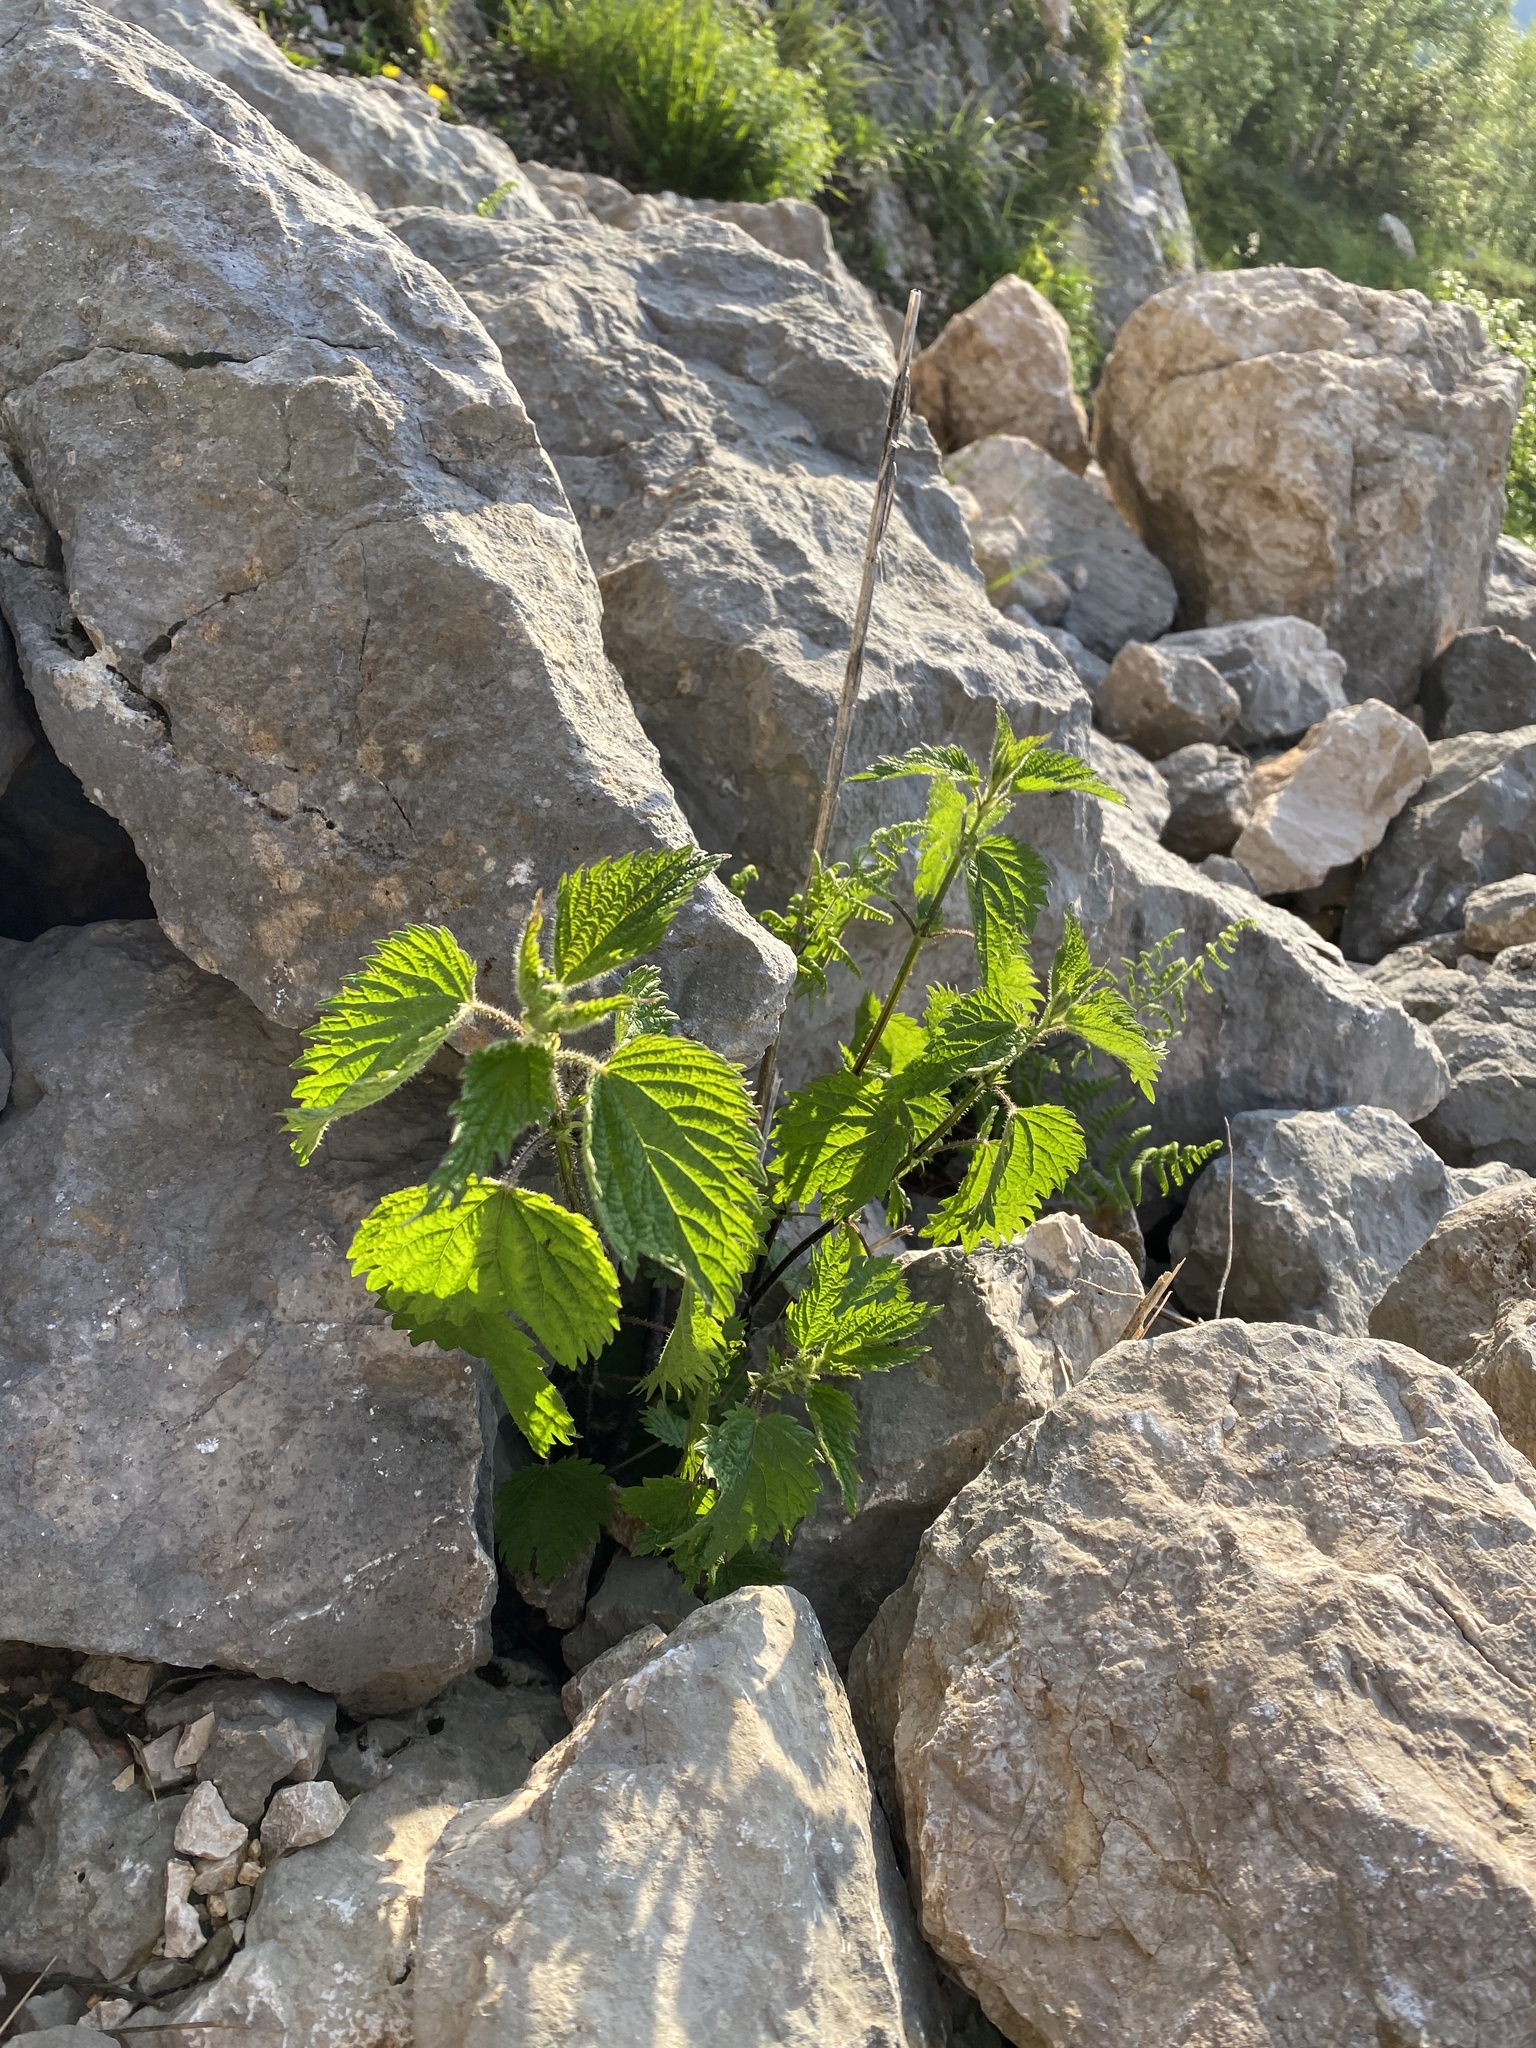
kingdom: Plantae
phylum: Tracheophyta
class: Magnoliopsida
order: Rosales
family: Urticaceae
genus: Urtica
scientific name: Urtica dioica
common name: Common nettle
